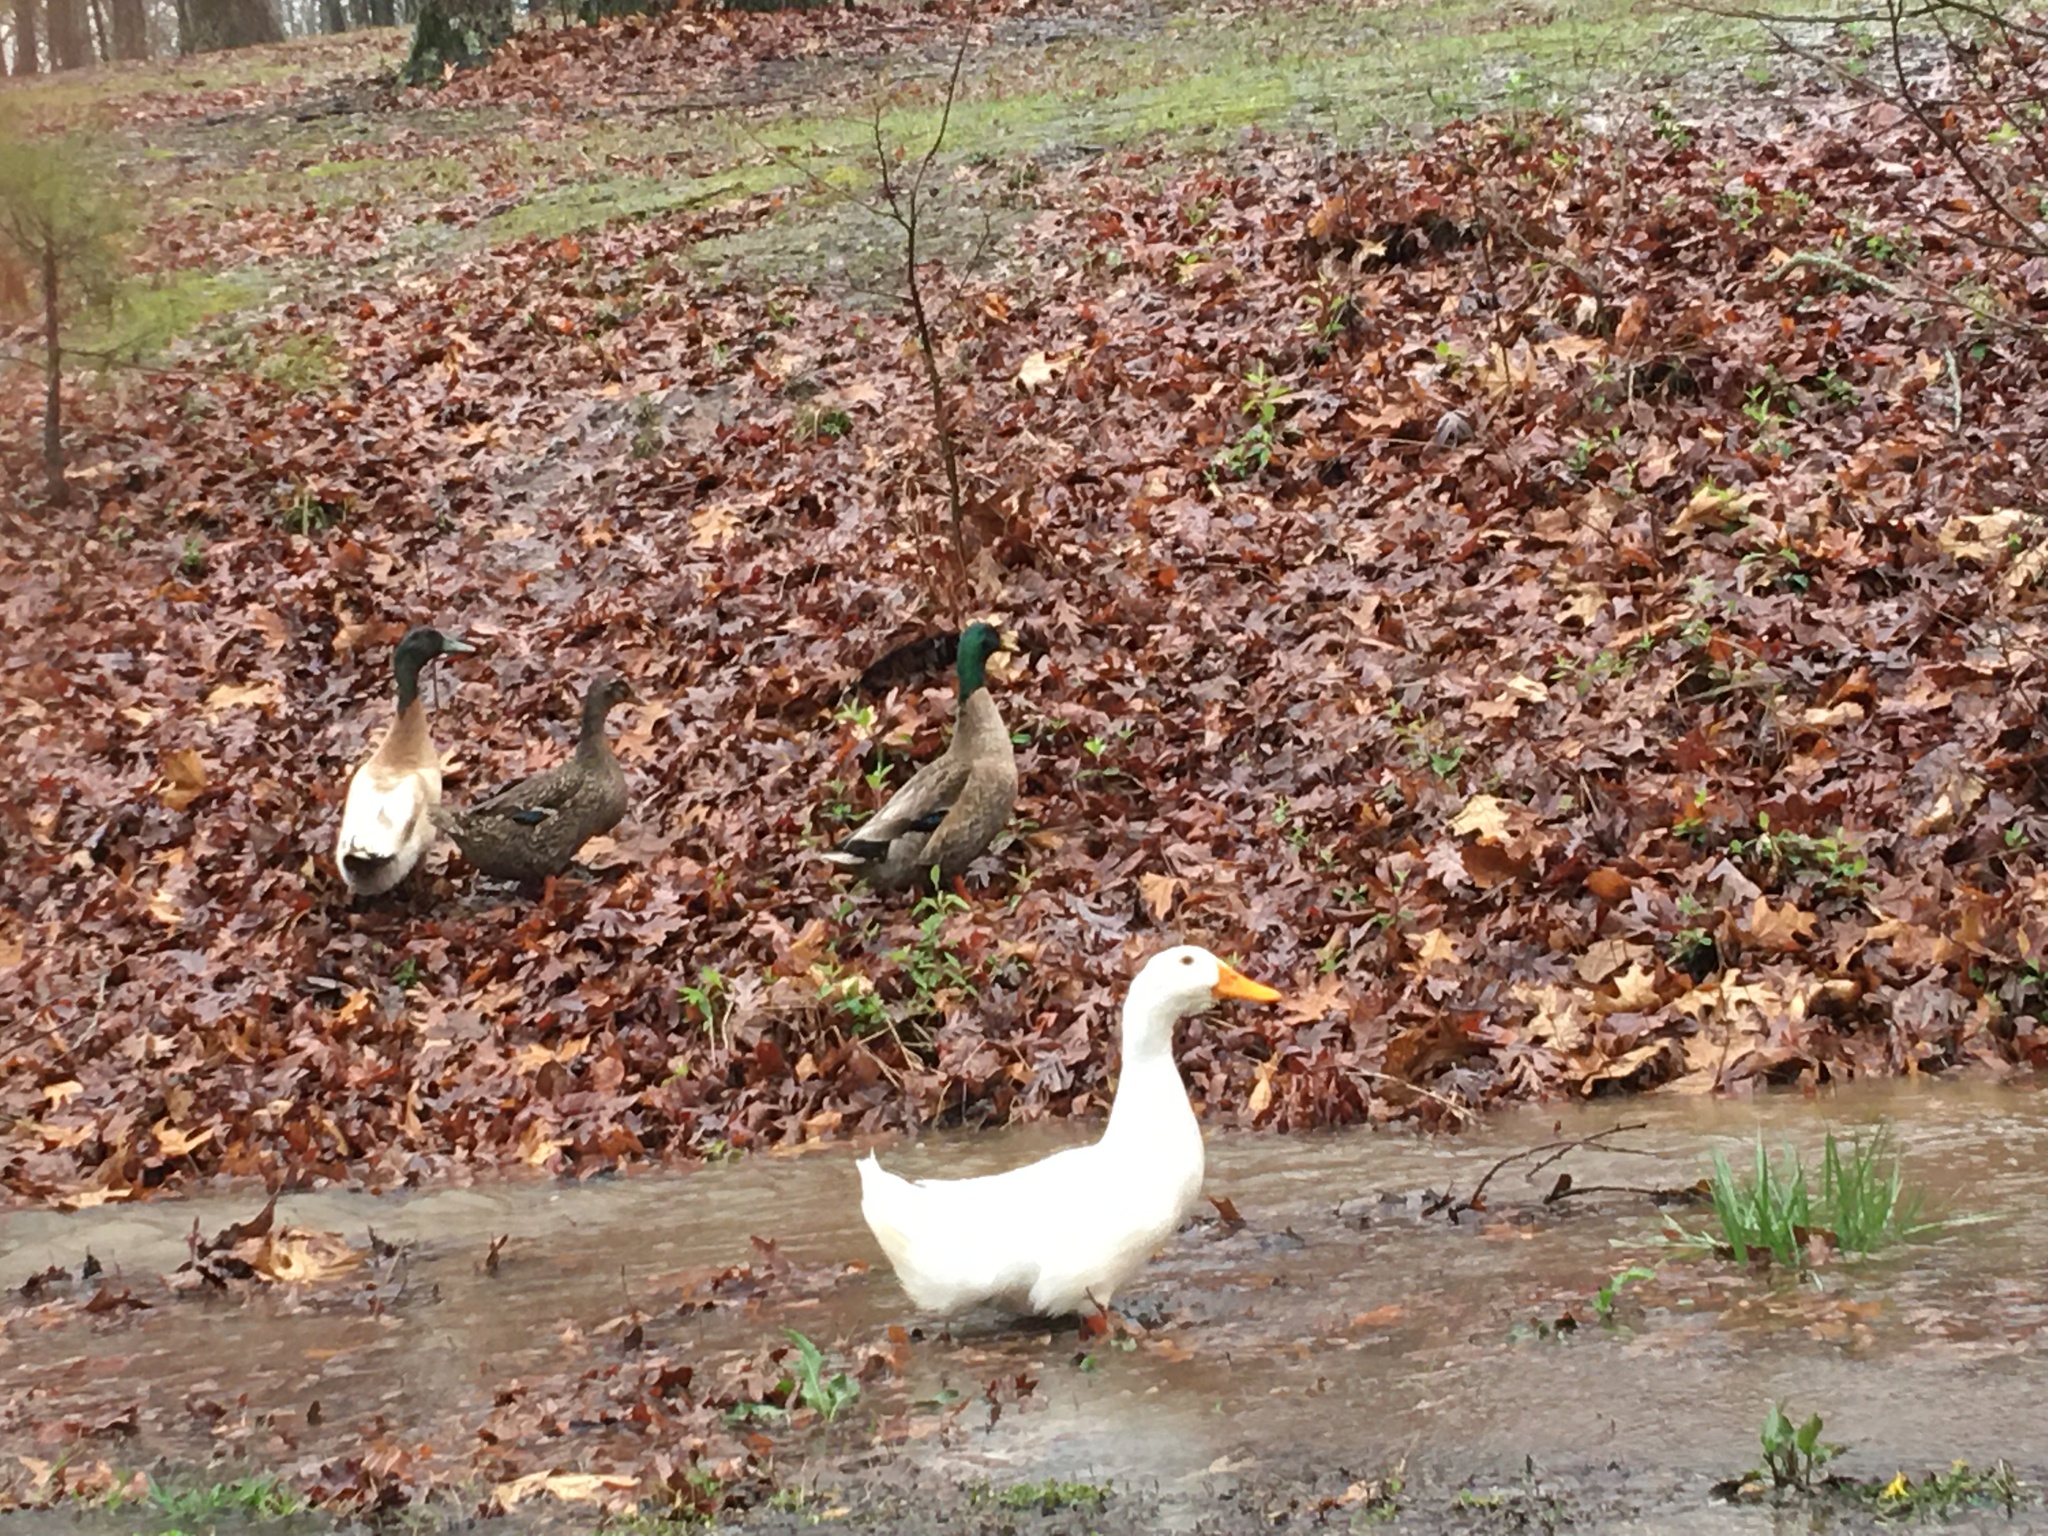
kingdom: Animalia
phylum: Chordata
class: Aves
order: Anseriformes
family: Anatidae
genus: Anas
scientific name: Anas platyrhynchos
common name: Mallard
